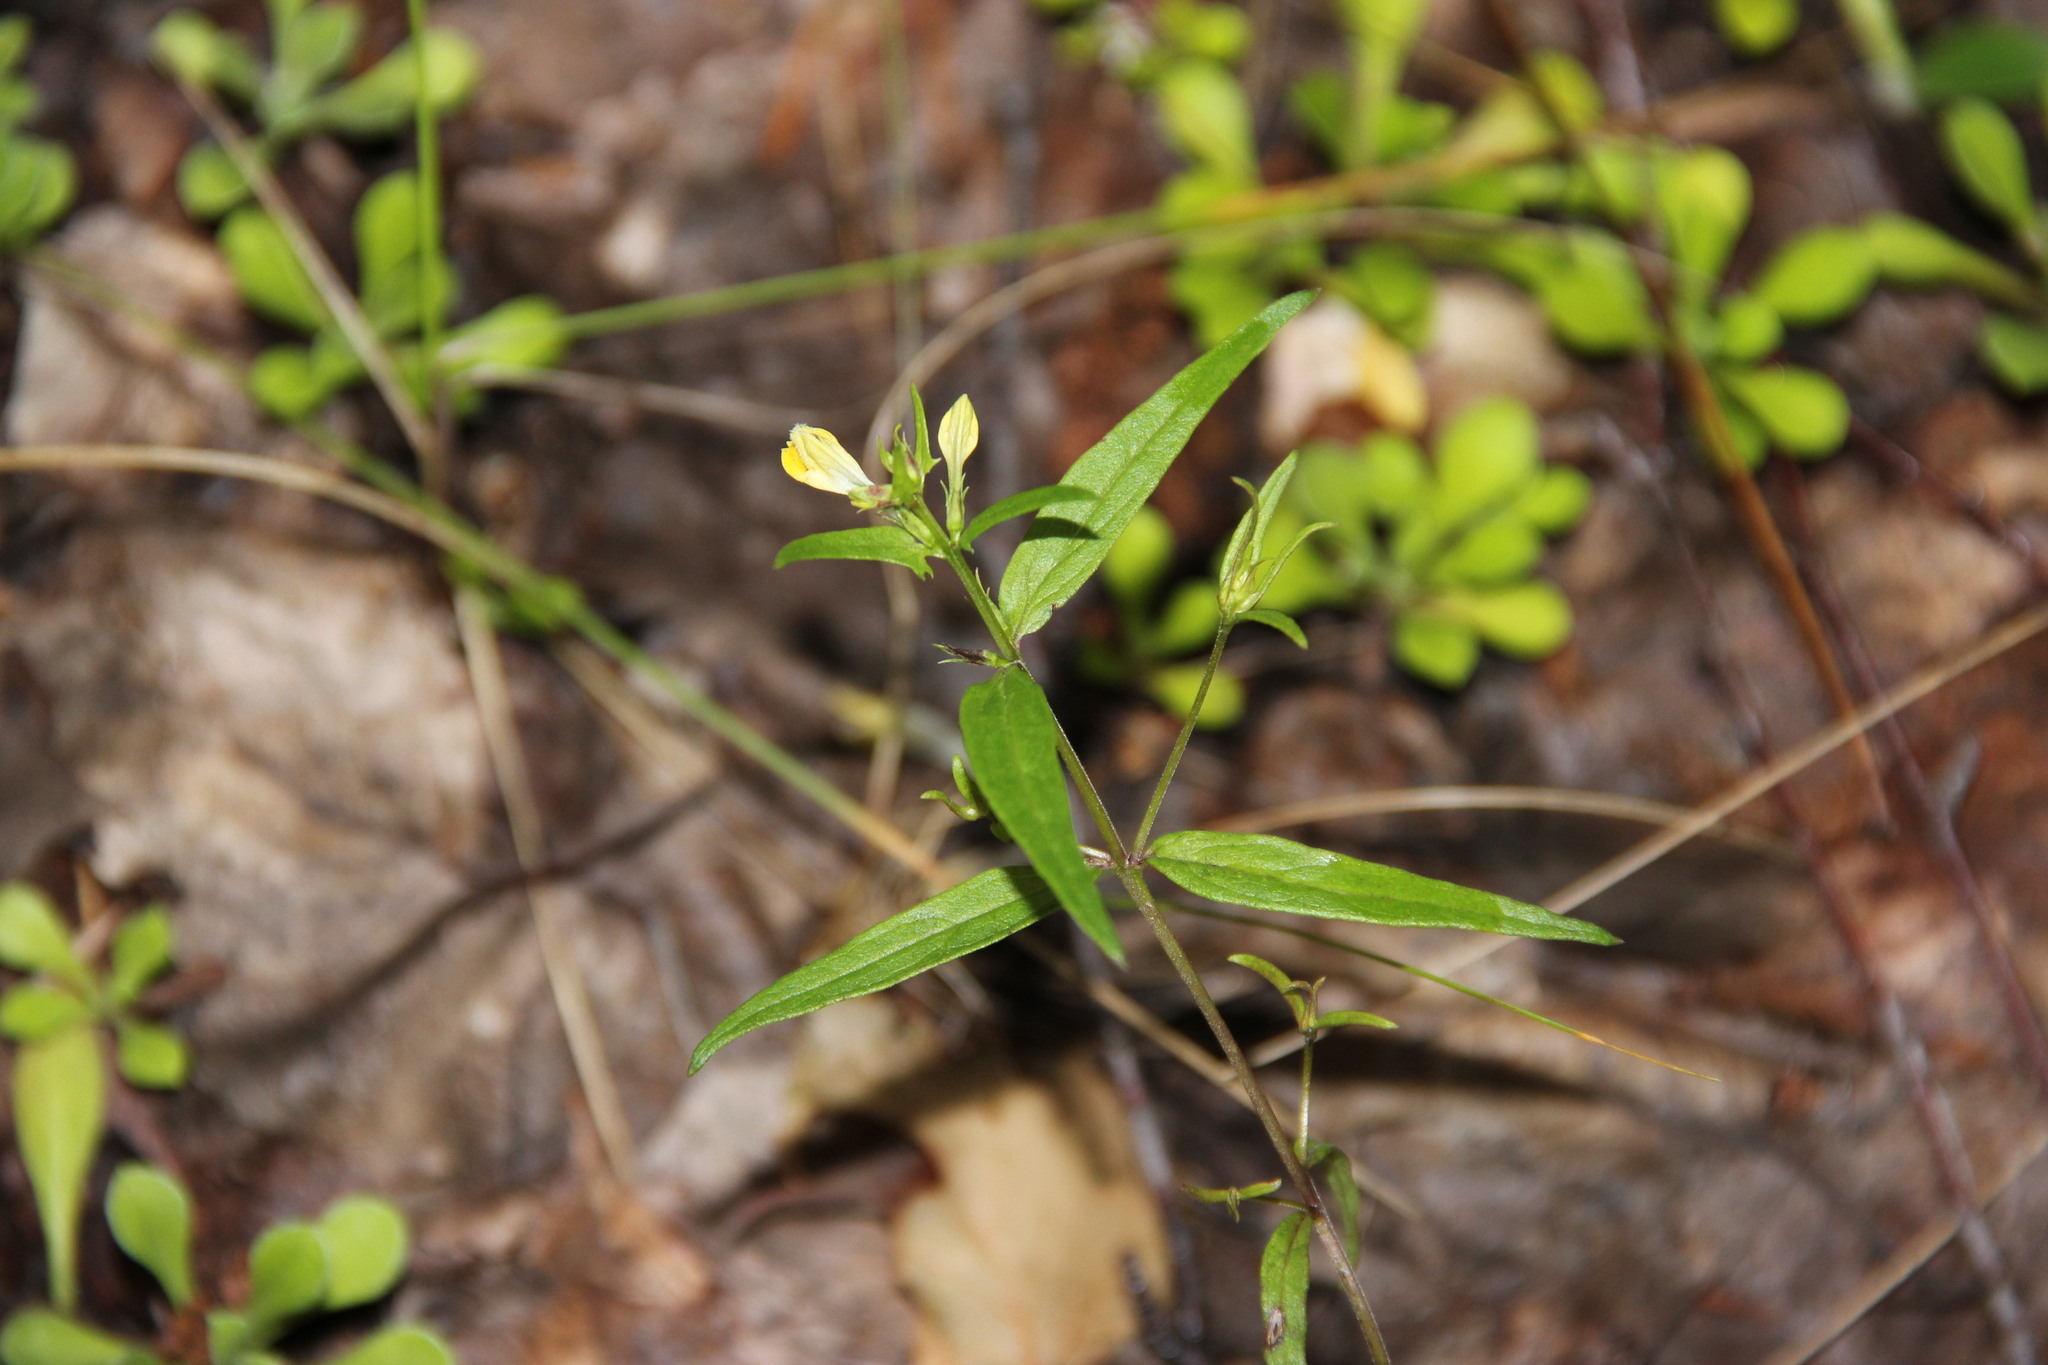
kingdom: Plantae
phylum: Tracheophyta
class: Magnoliopsida
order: Lamiales
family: Orobanchaceae
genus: Melampyrum
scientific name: Melampyrum pratense
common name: Common cow-wheat
